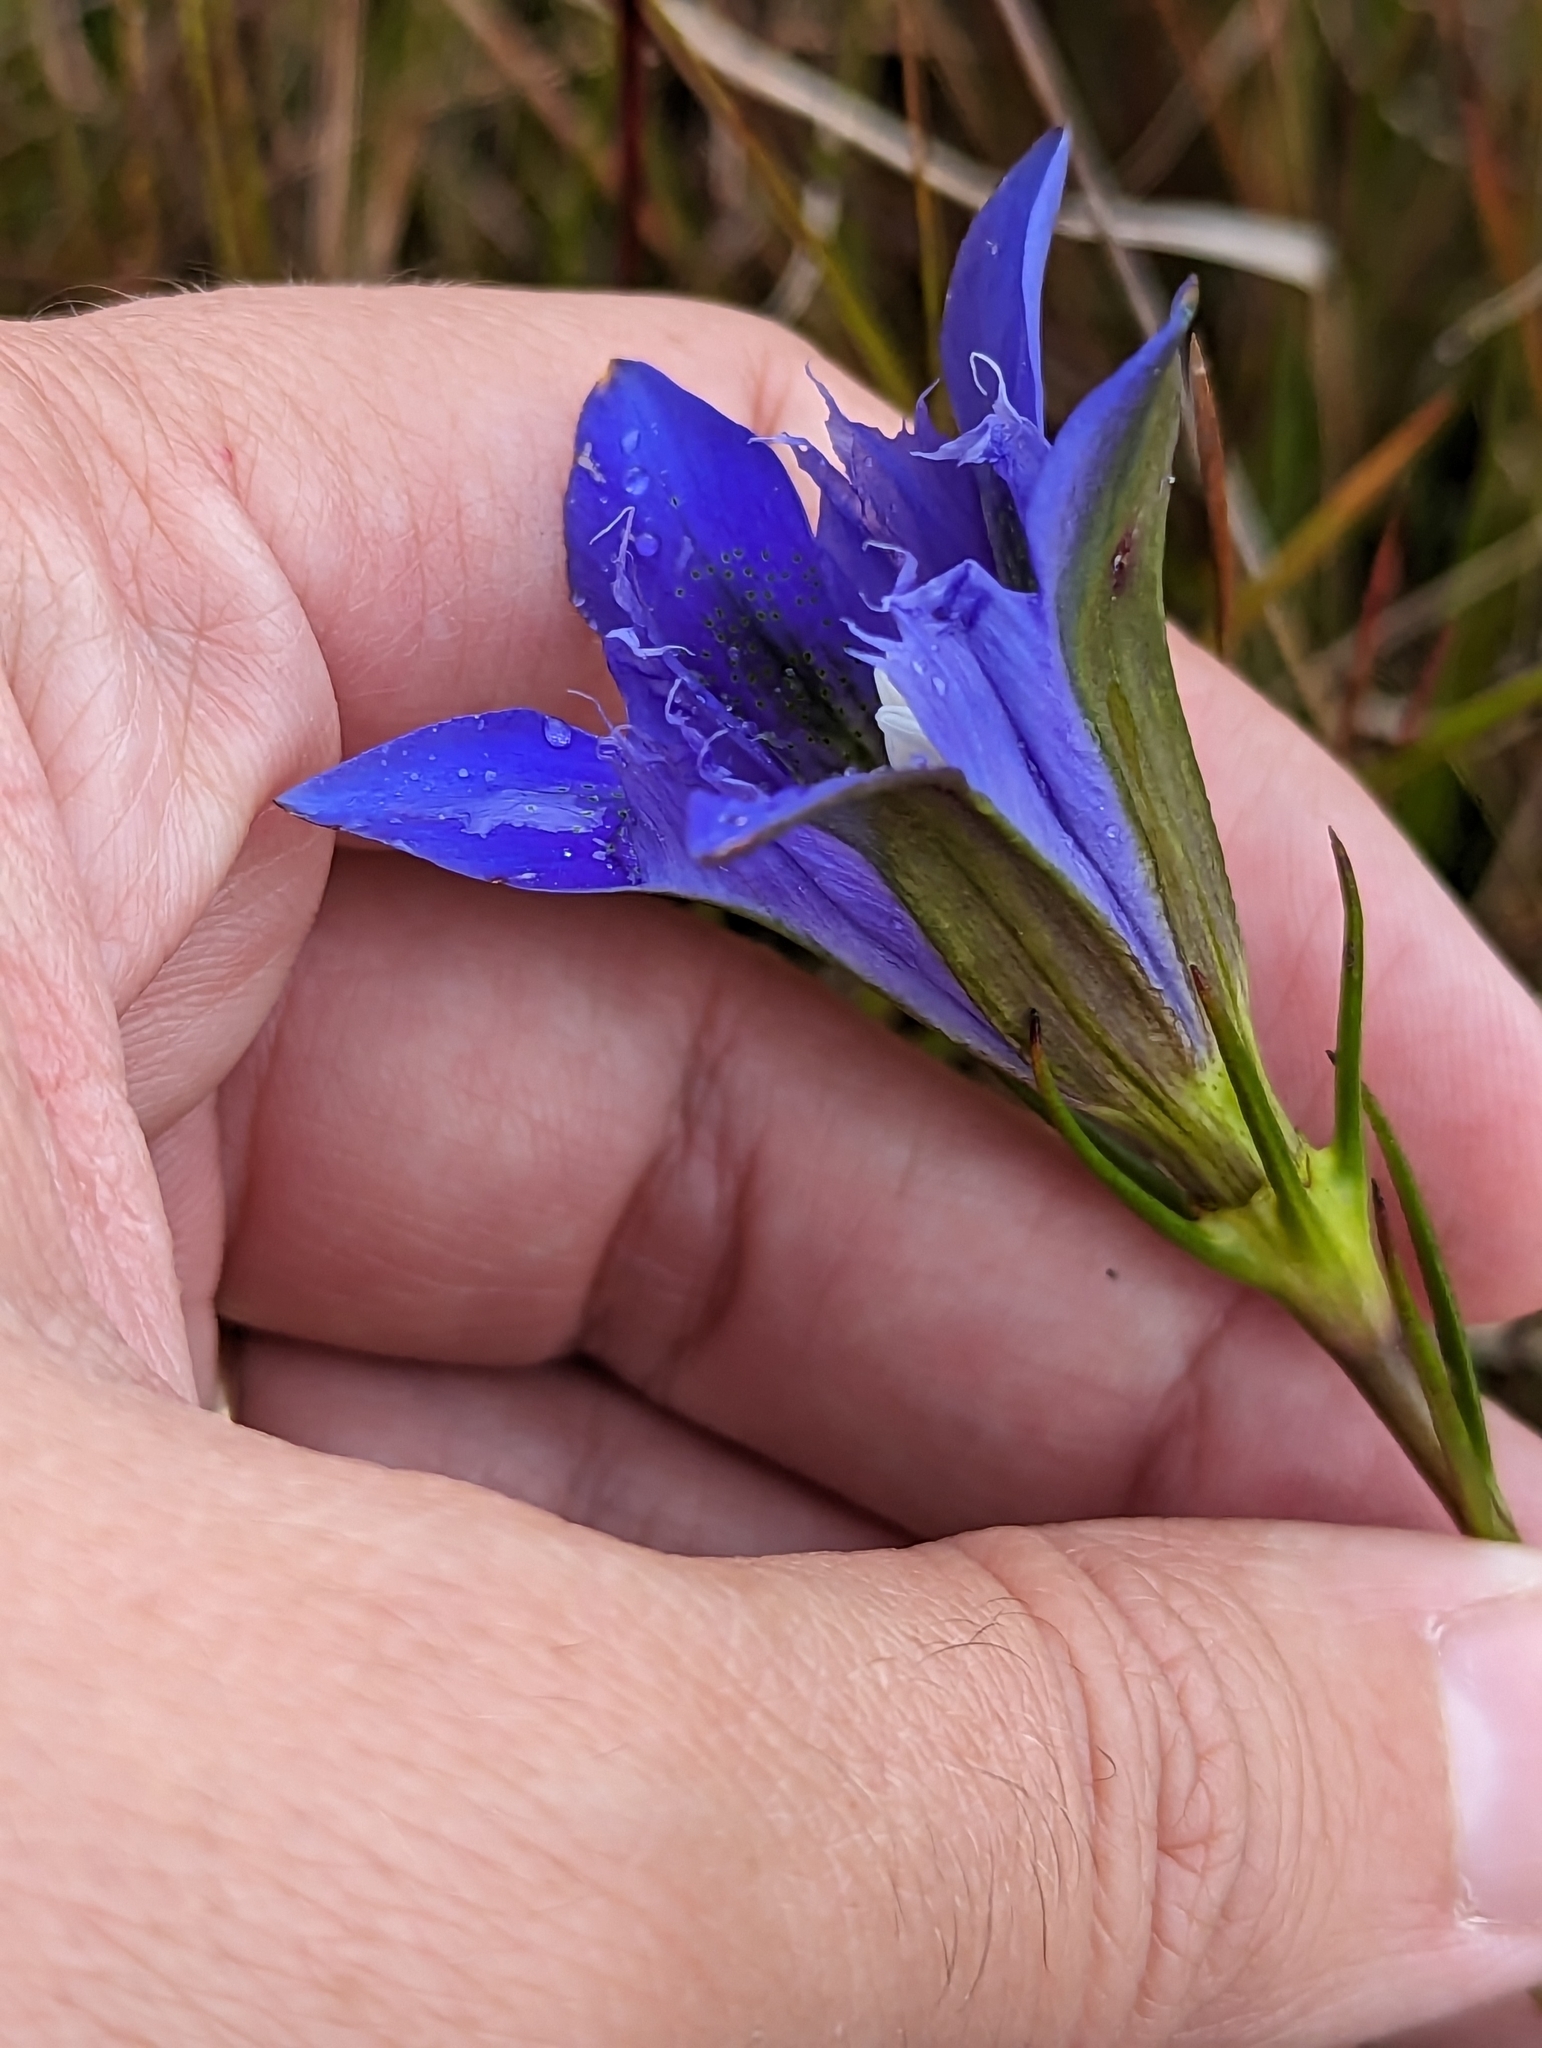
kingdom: Plantae
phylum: Tracheophyta
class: Magnoliopsida
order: Gentianales
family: Gentianaceae
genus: Gentiana
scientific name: Gentiana autumnalis
